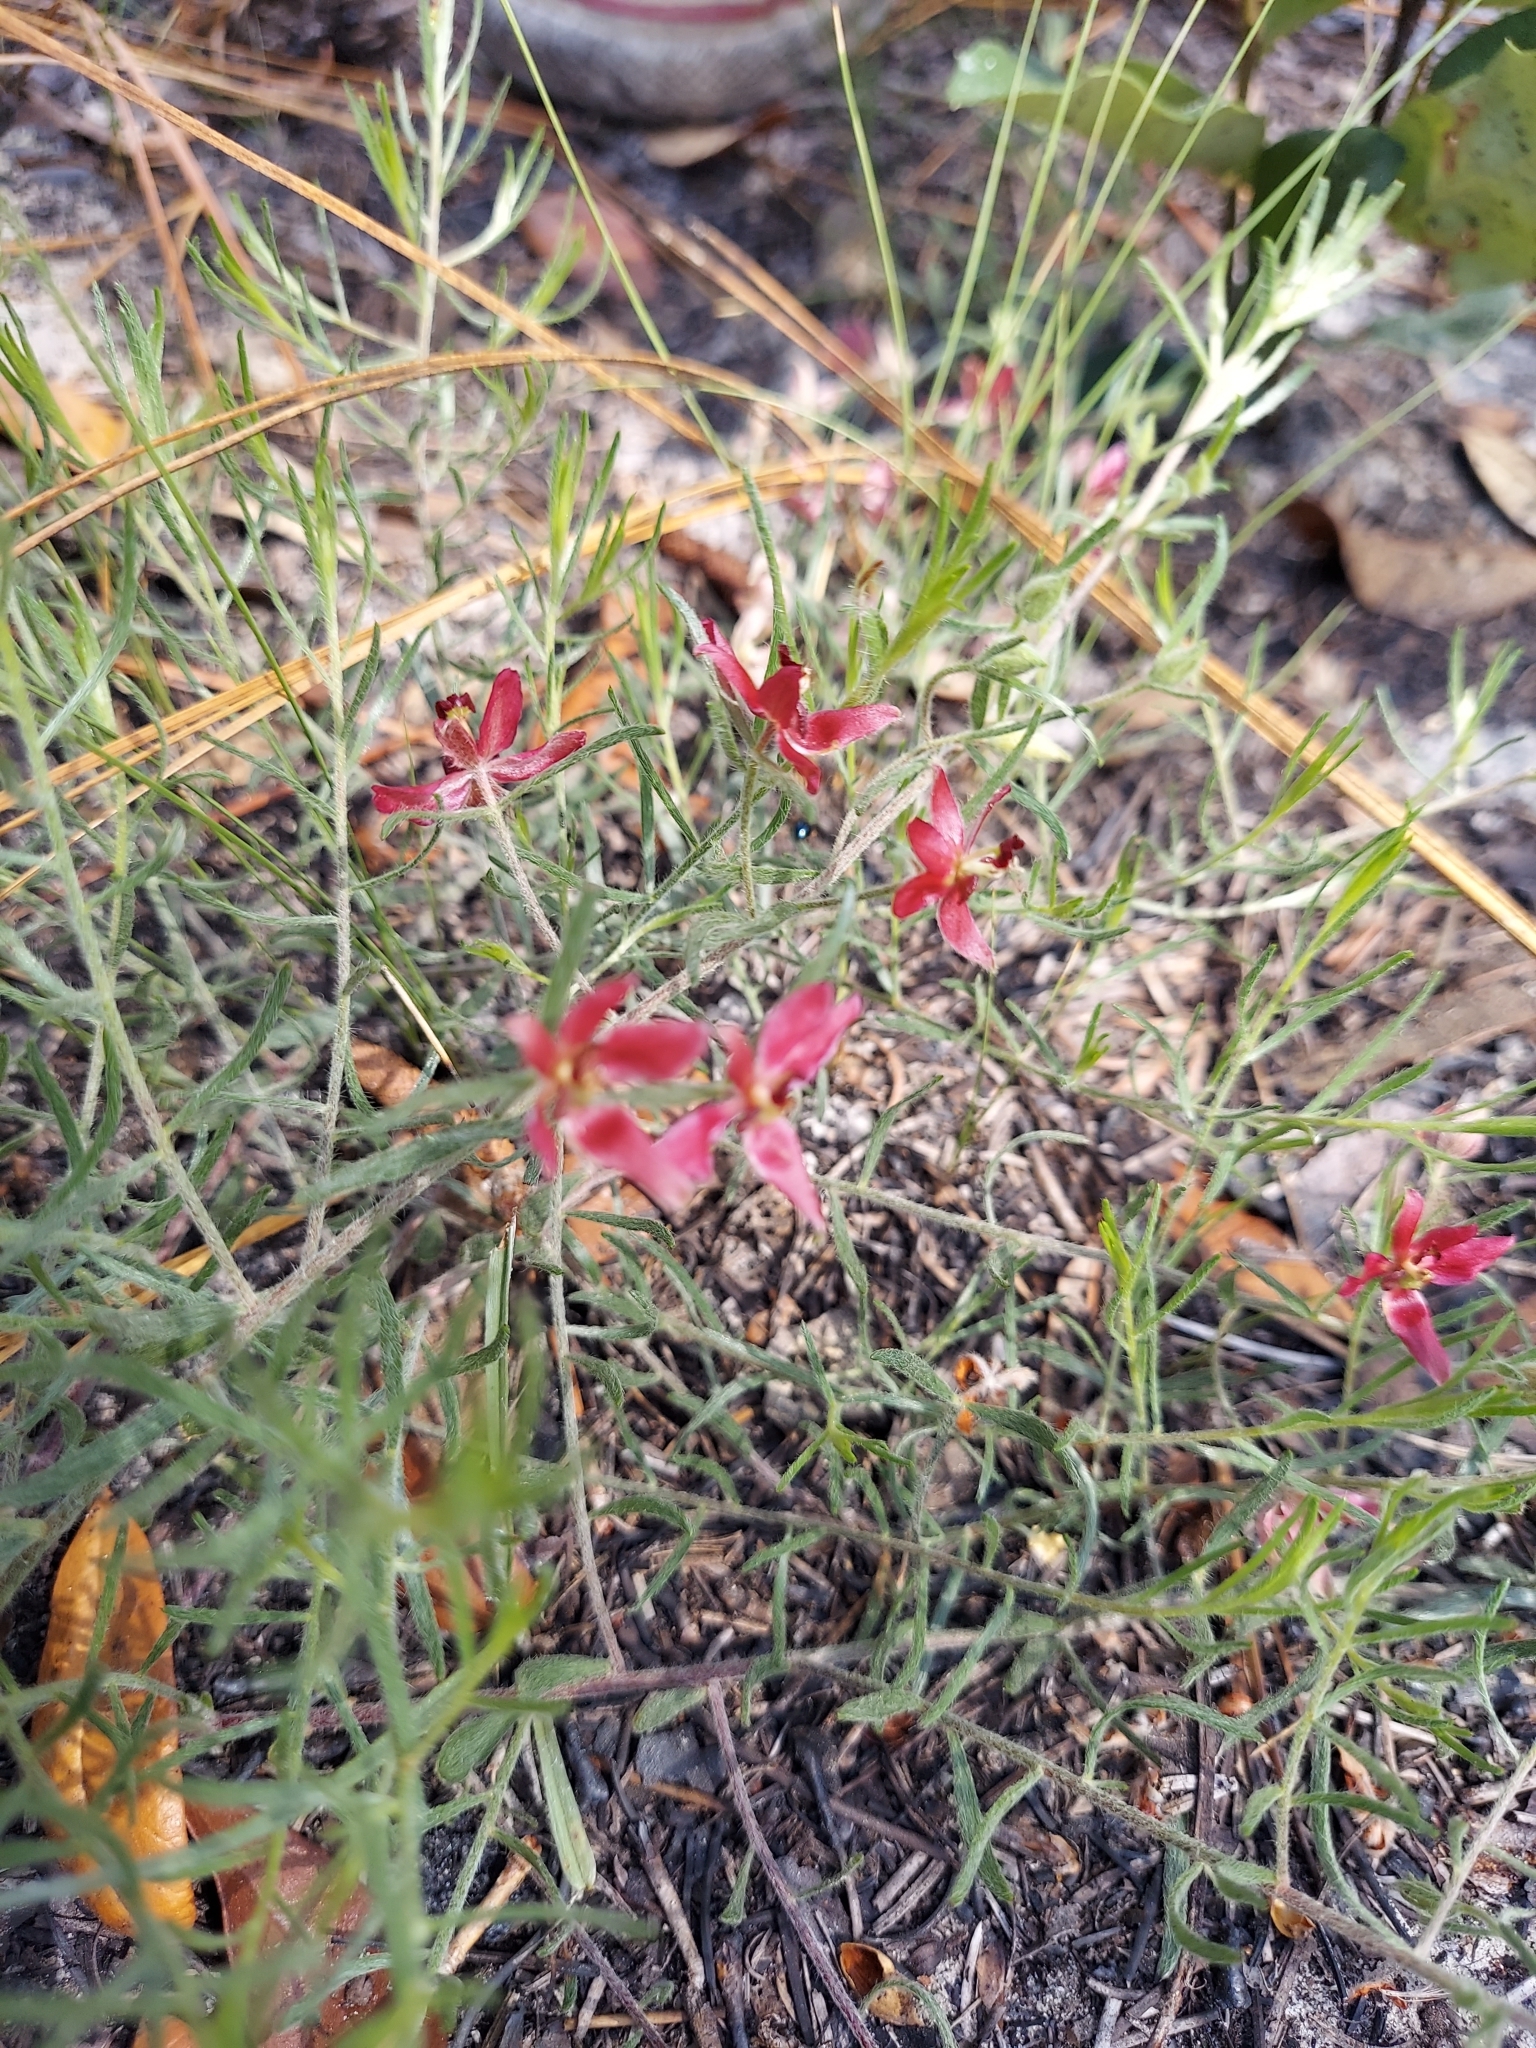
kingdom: Plantae
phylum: Tracheophyta
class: Magnoliopsida
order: Zygophyllales
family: Krameriaceae
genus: Krameria
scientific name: Krameria lanceolata
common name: Ratany
